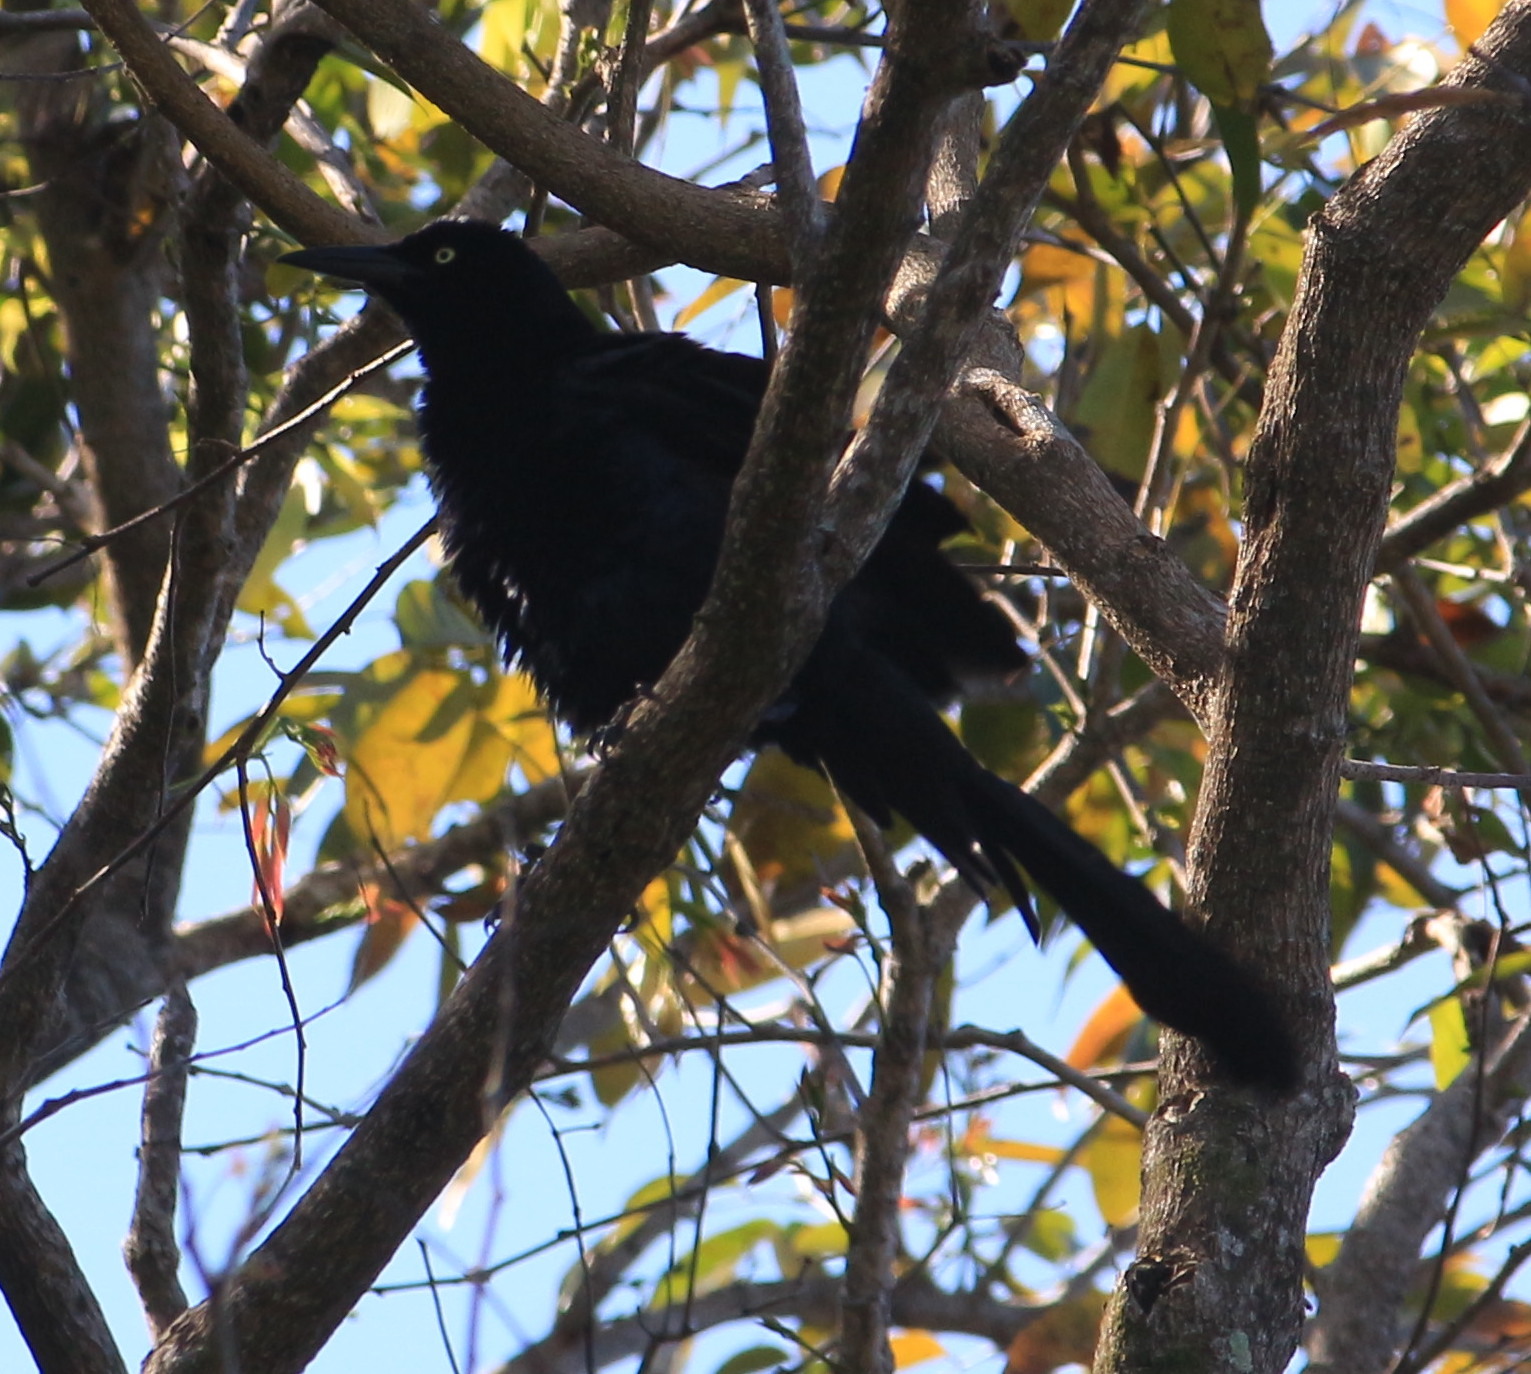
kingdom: Animalia
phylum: Chordata
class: Aves
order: Passeriformes
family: Icteridae
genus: Quiscalus
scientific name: Quiscalus mexicanus
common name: Great-tailed grackle
